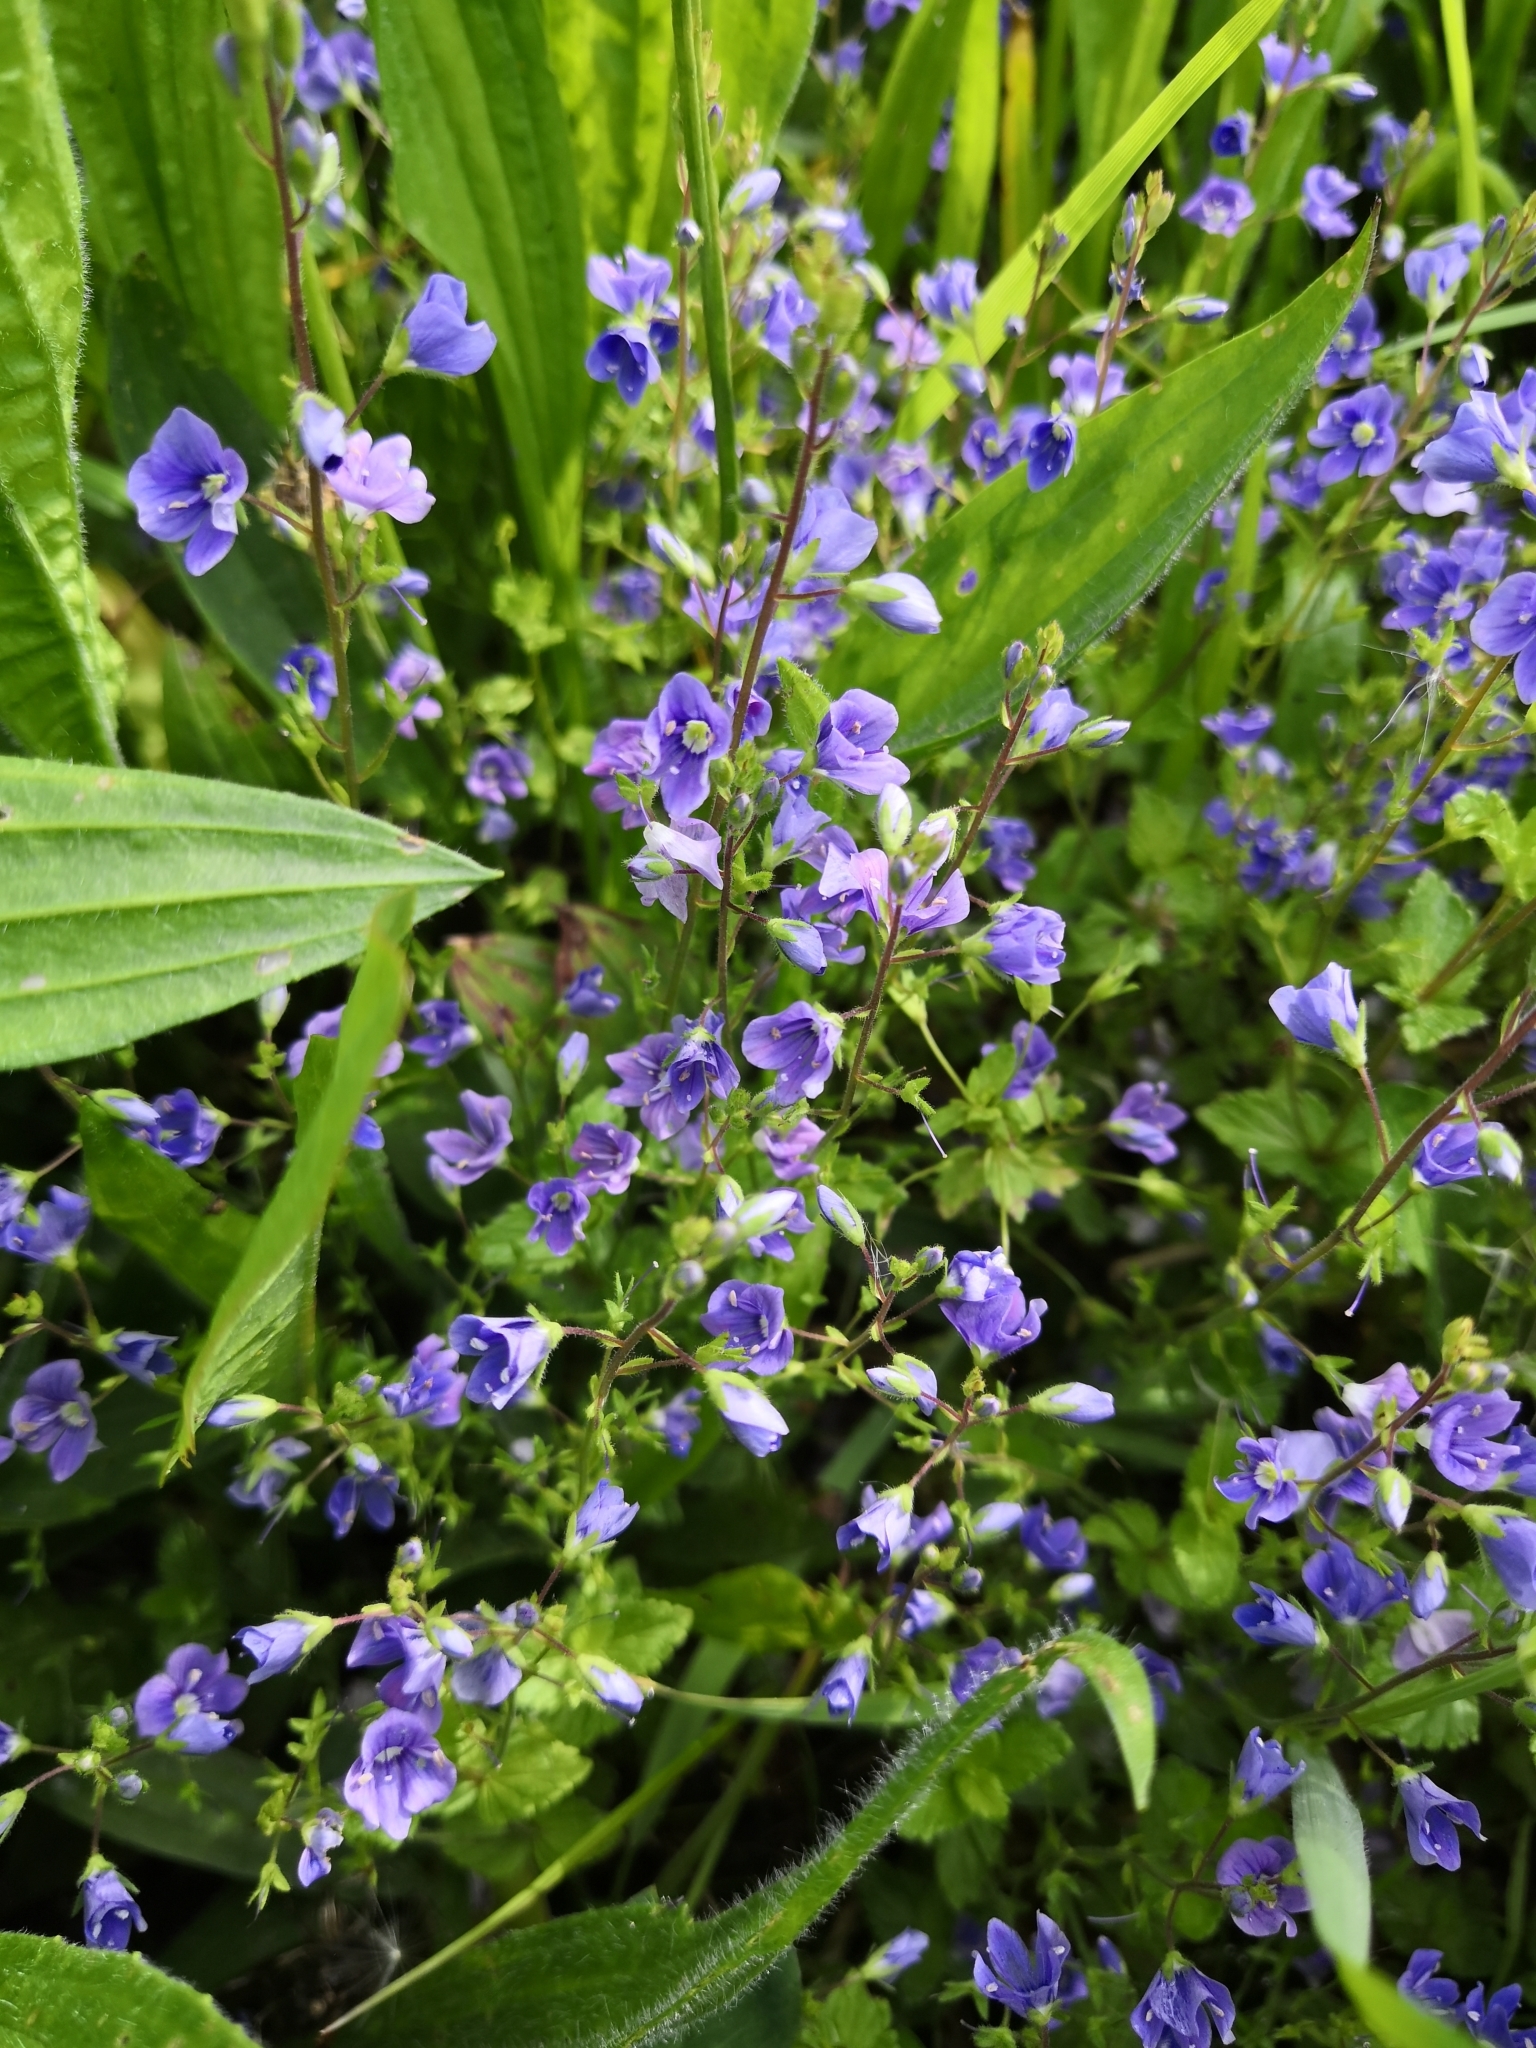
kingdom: Plantae
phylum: Tracheophyta
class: Magnoliopsida
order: Lamiales
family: Plantaginaceae
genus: Veronica
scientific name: Veronica chamaedrys
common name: Germander speedwell
